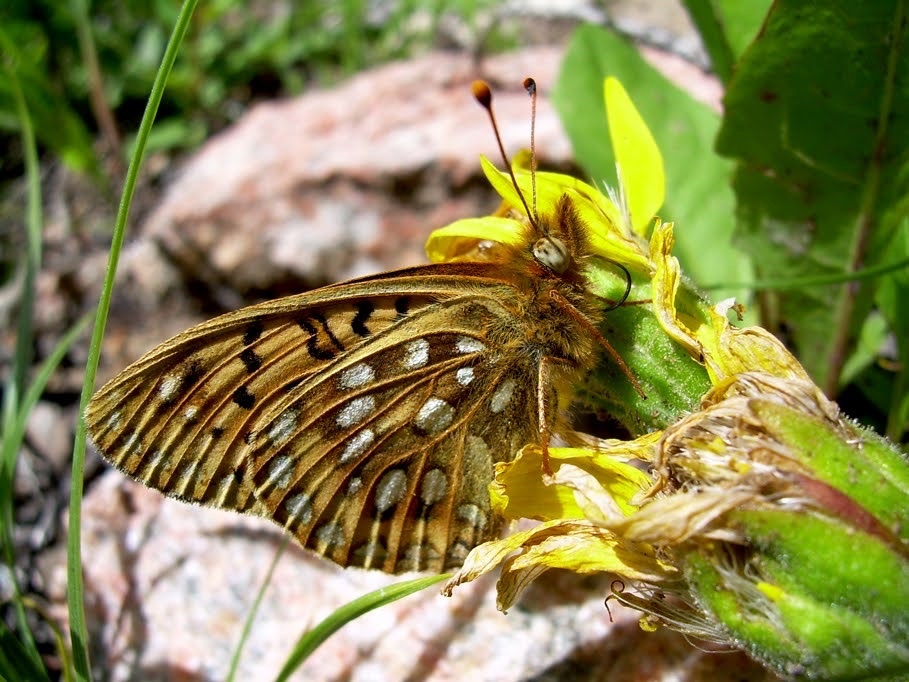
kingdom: Animalia
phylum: Arthropoda
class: Insecta
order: Lepidoptera
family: Nymphalidae
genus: Speyeria
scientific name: Speyeria mormonia
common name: Mormon fritillary
